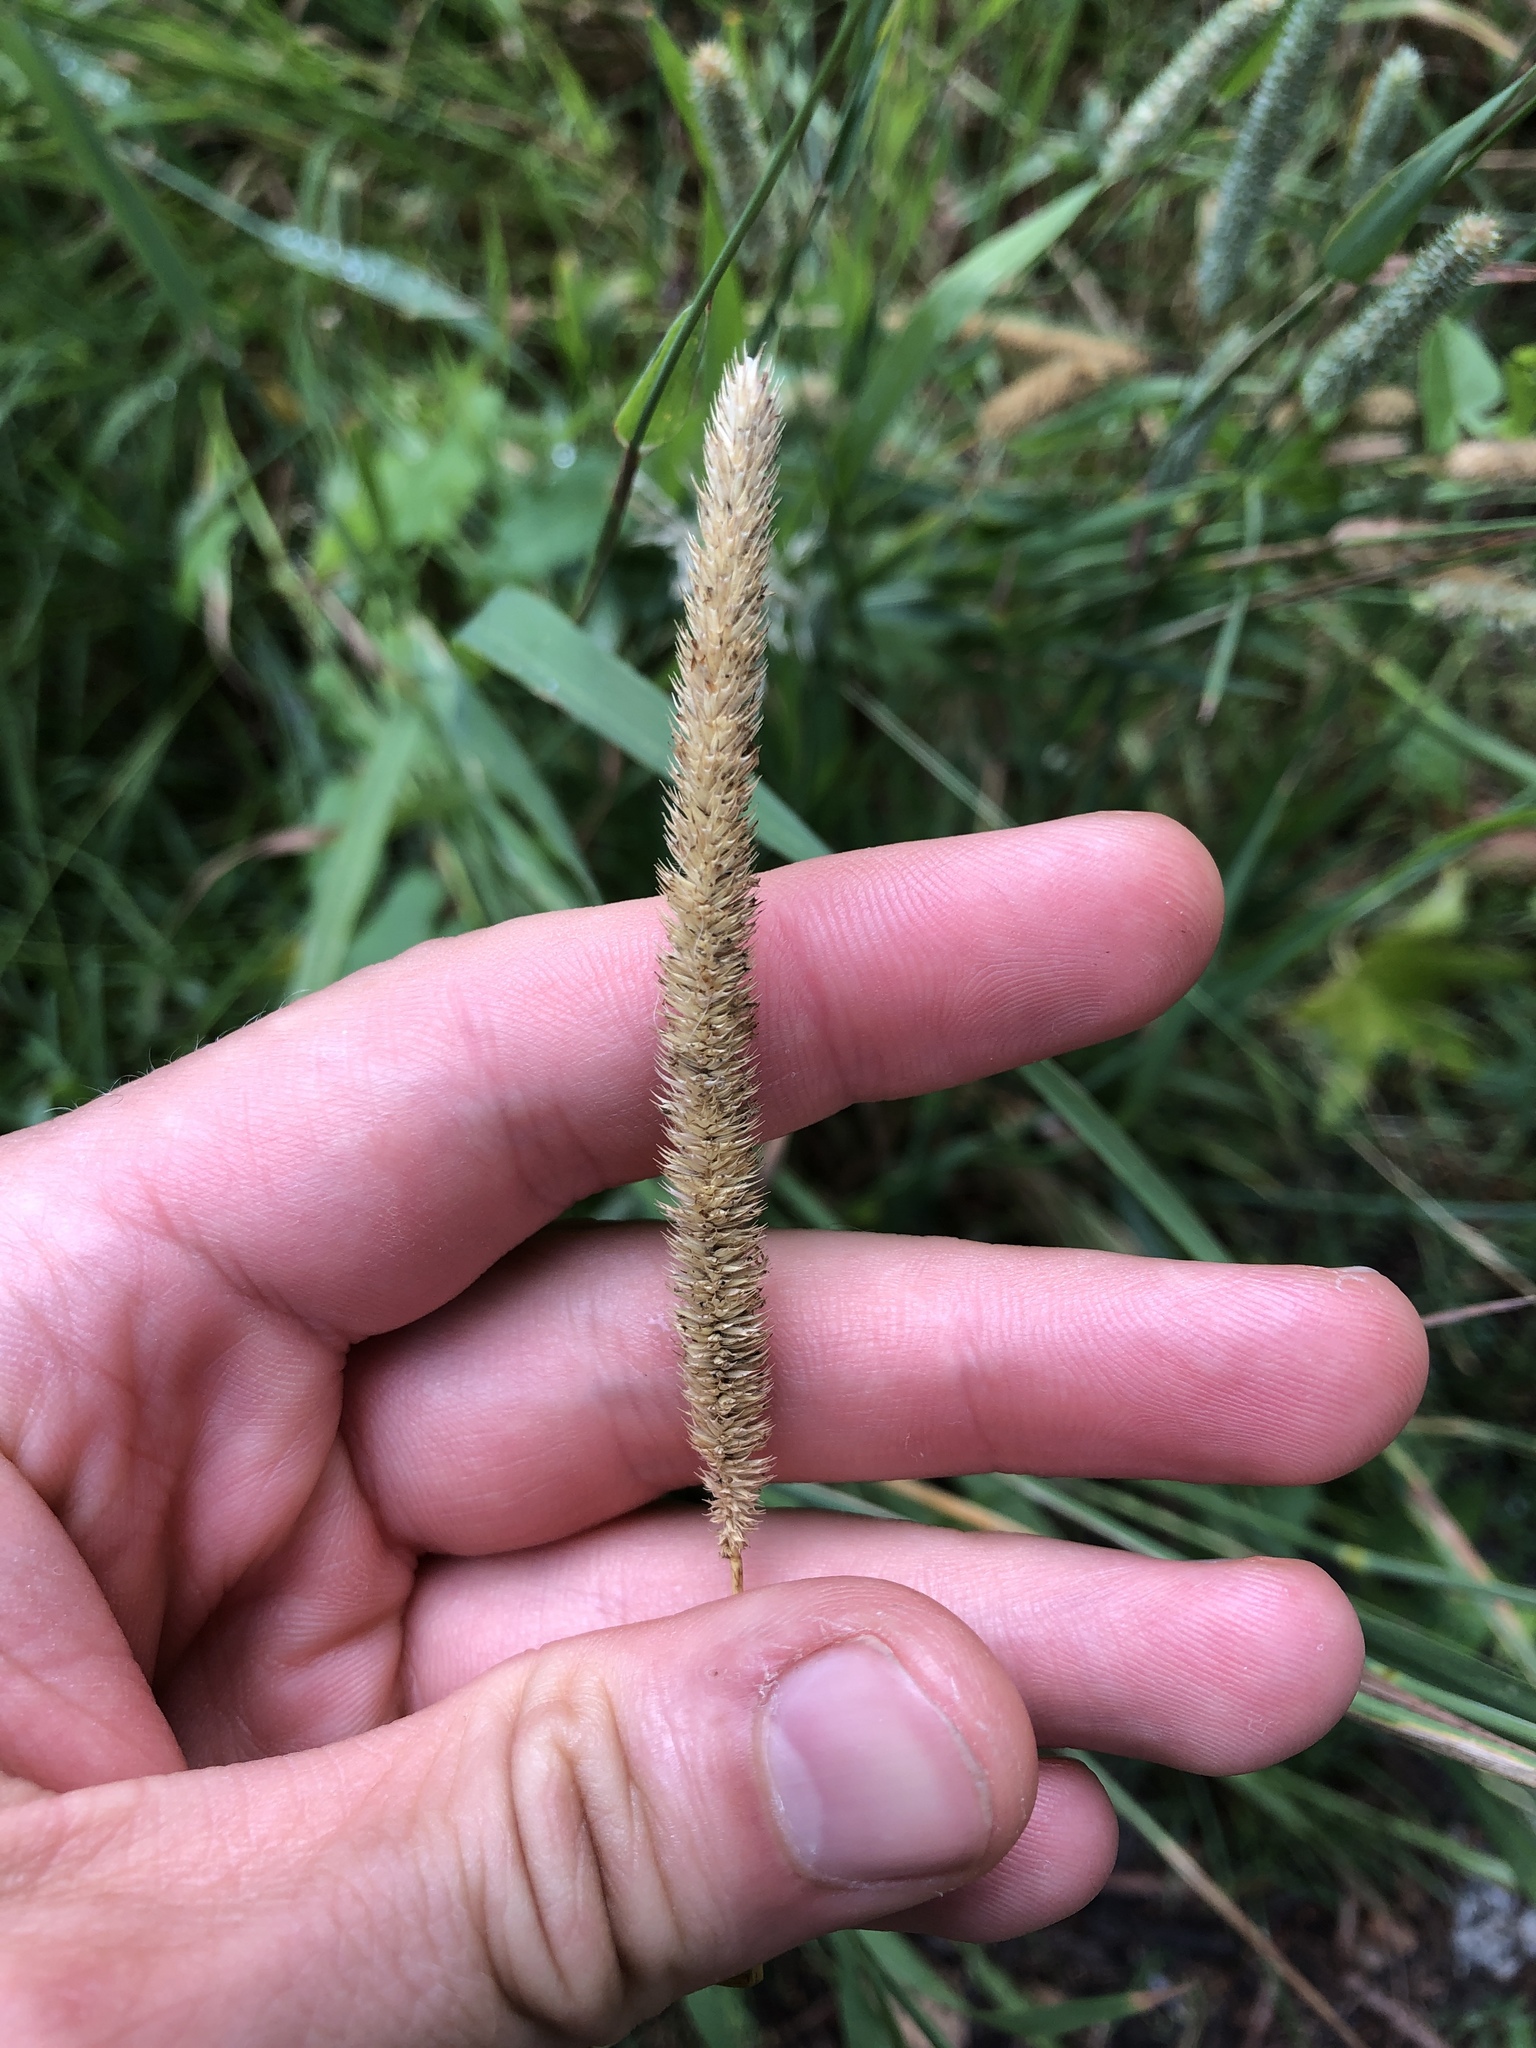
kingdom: Plantae
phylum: Tracheophyta
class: Liliopsida
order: Poales
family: Poaceae
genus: Phleum
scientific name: Phleum pratense
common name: Timothy grass
